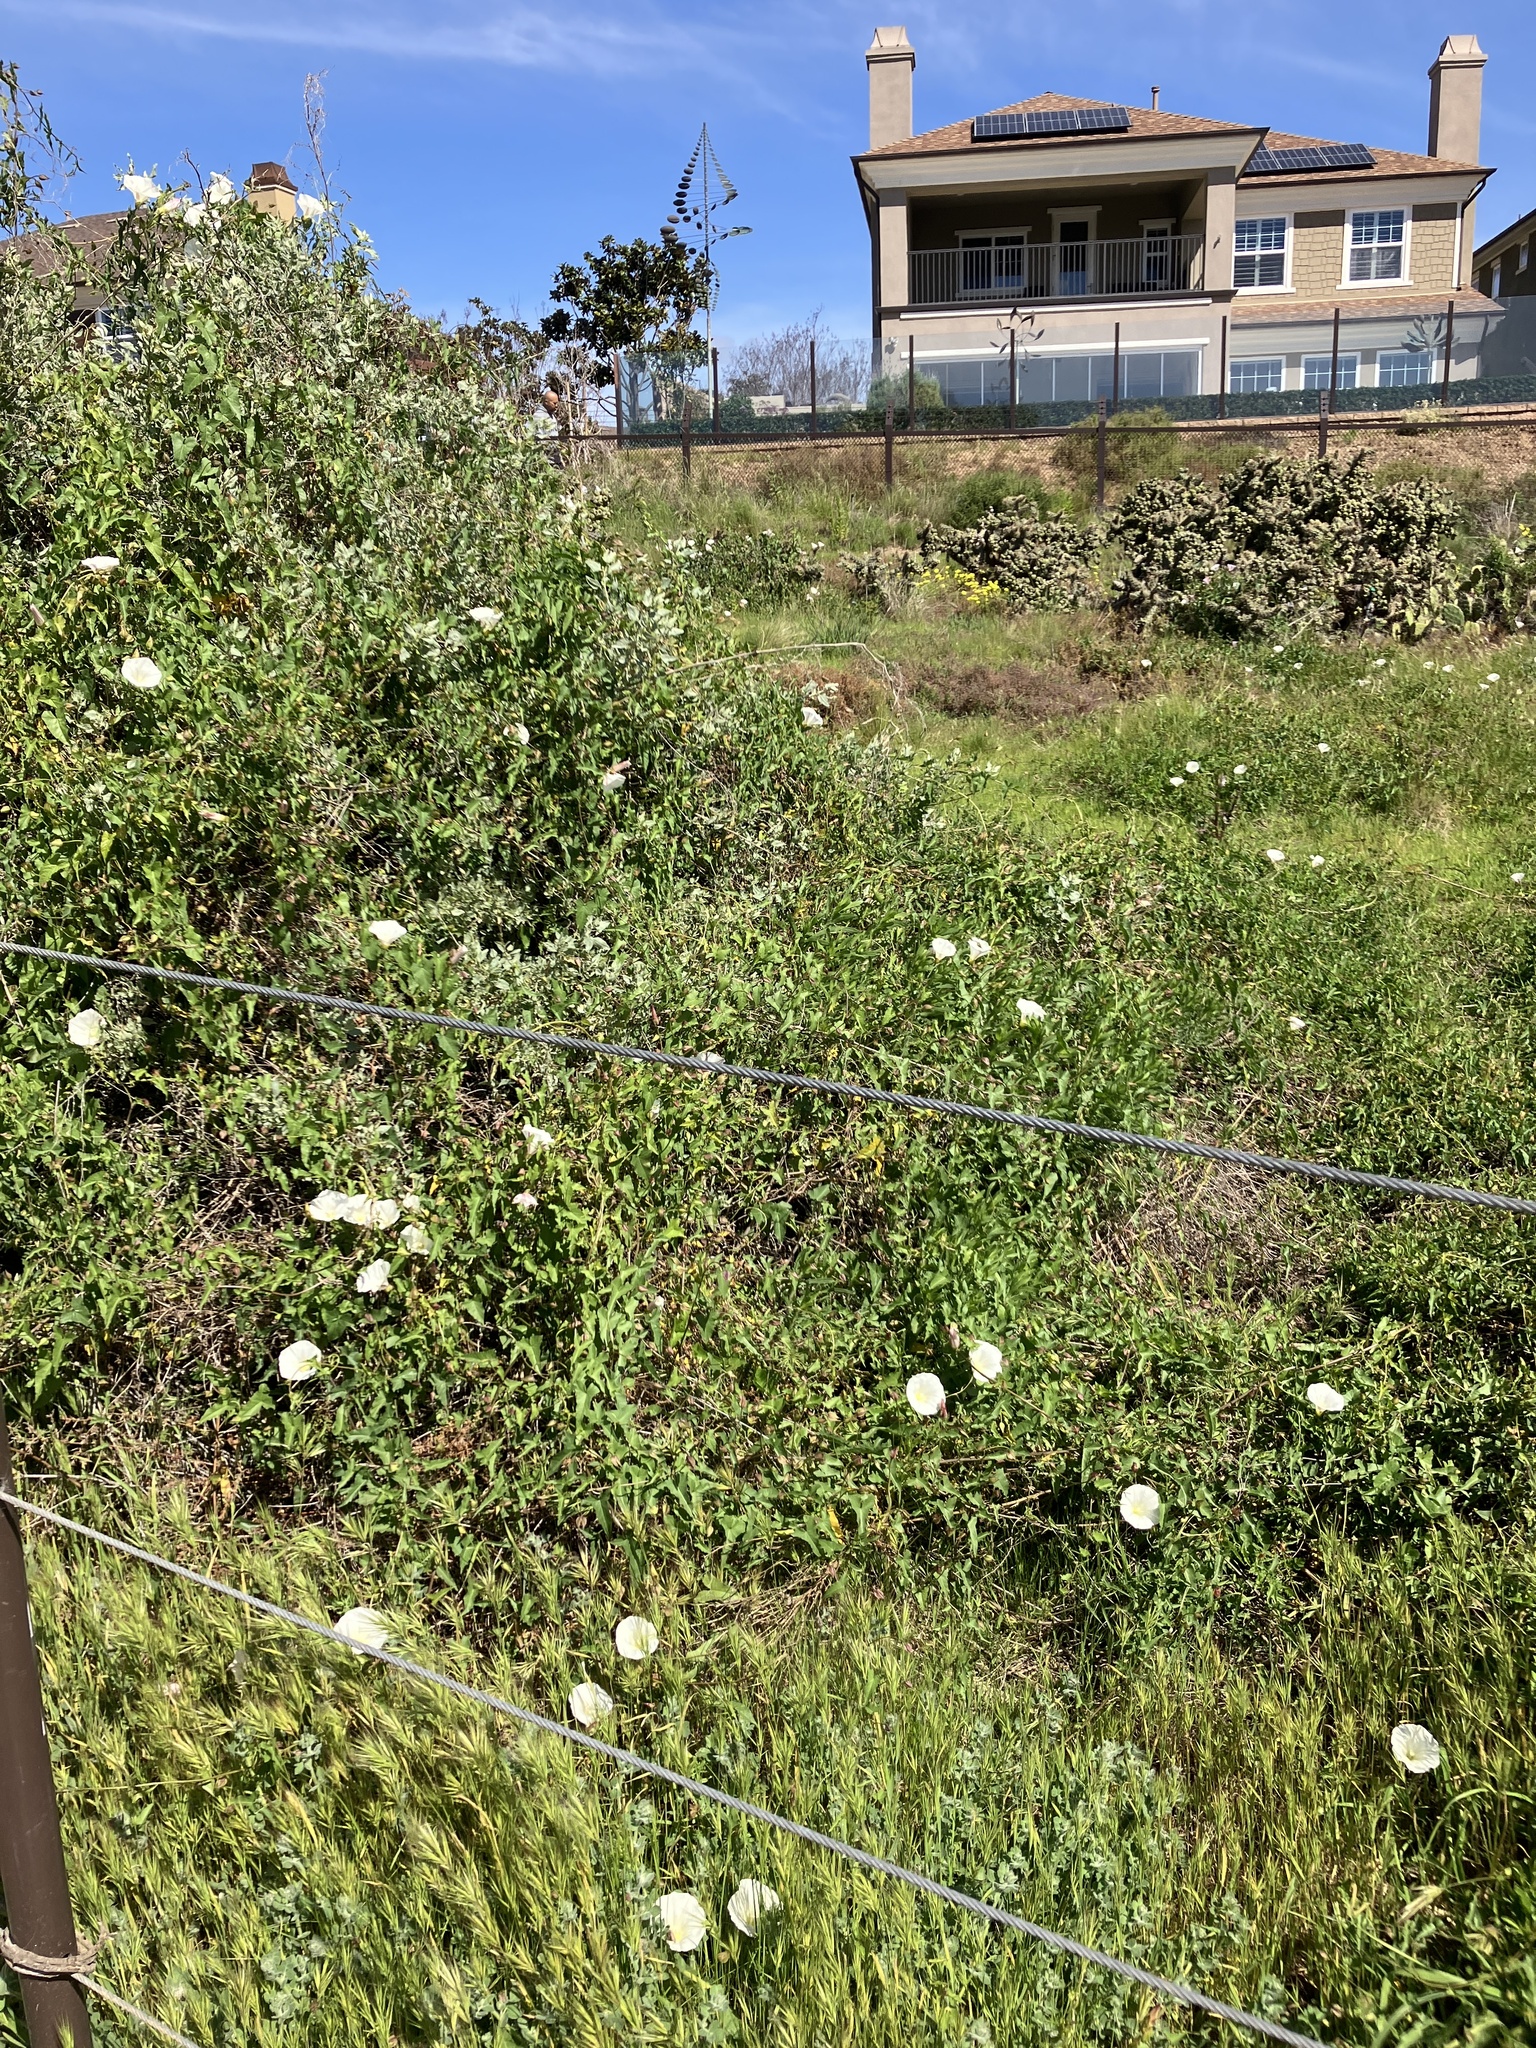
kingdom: Plantae
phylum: Tracheophyta
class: Magnoliopsida
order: Solanales
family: Convolvulaceae
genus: Calystegia
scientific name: Calystegia macrostegia
